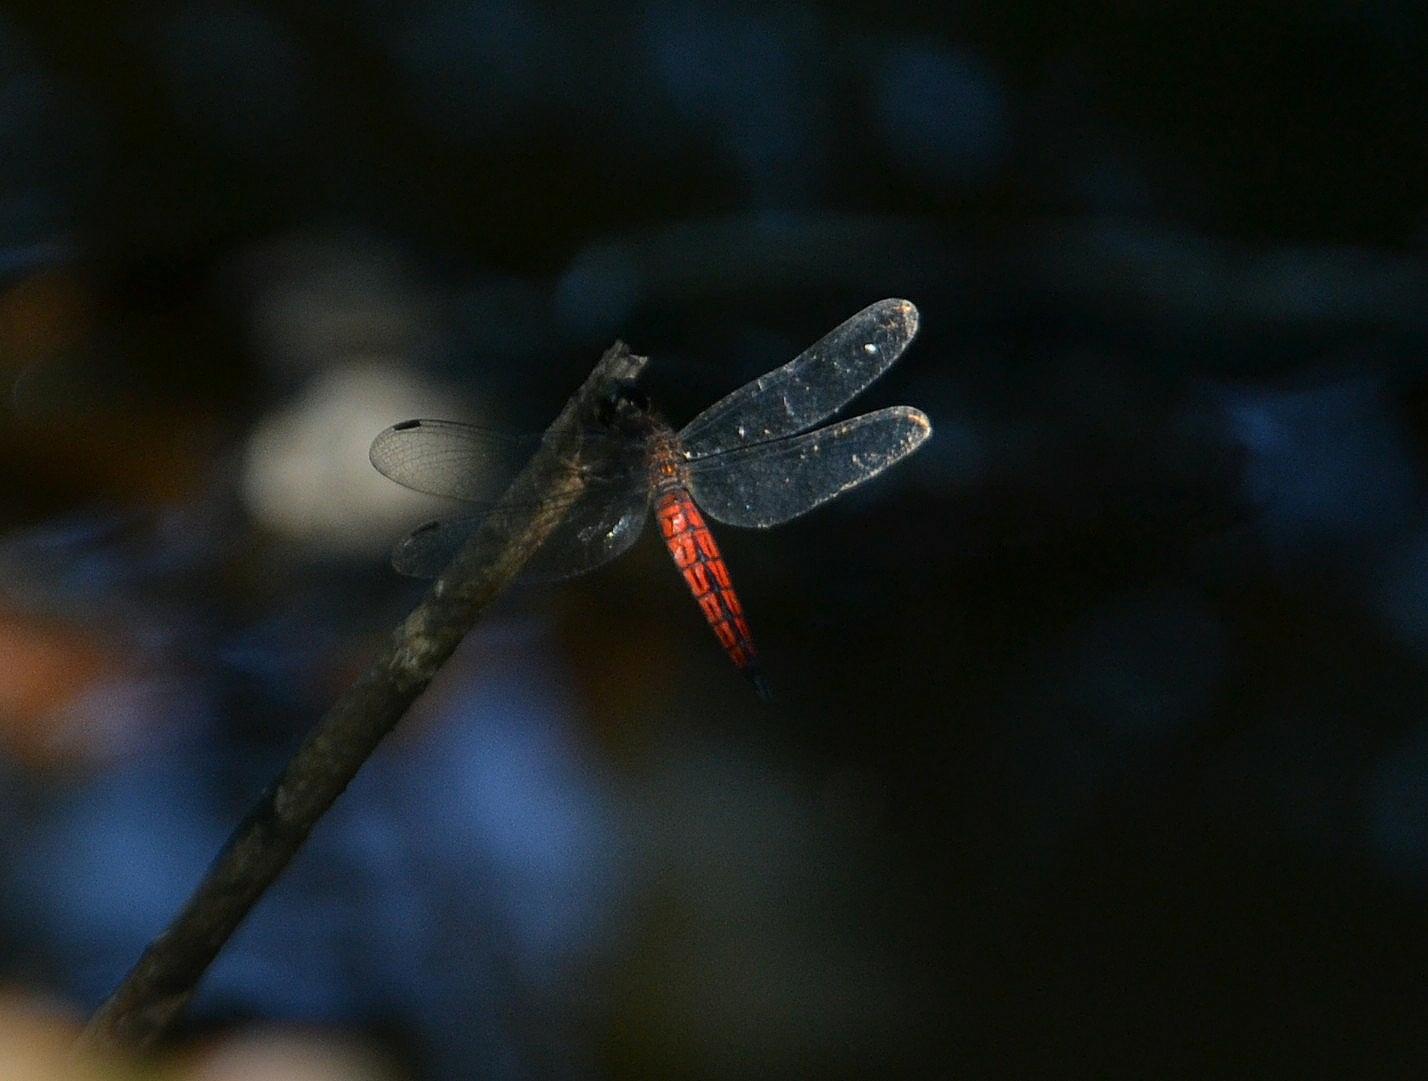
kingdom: Animalia
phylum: Arthropoda
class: Insecta
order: Odonata
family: Libellulidae
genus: Lyriothemis
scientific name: Lyriothemis acigastra
